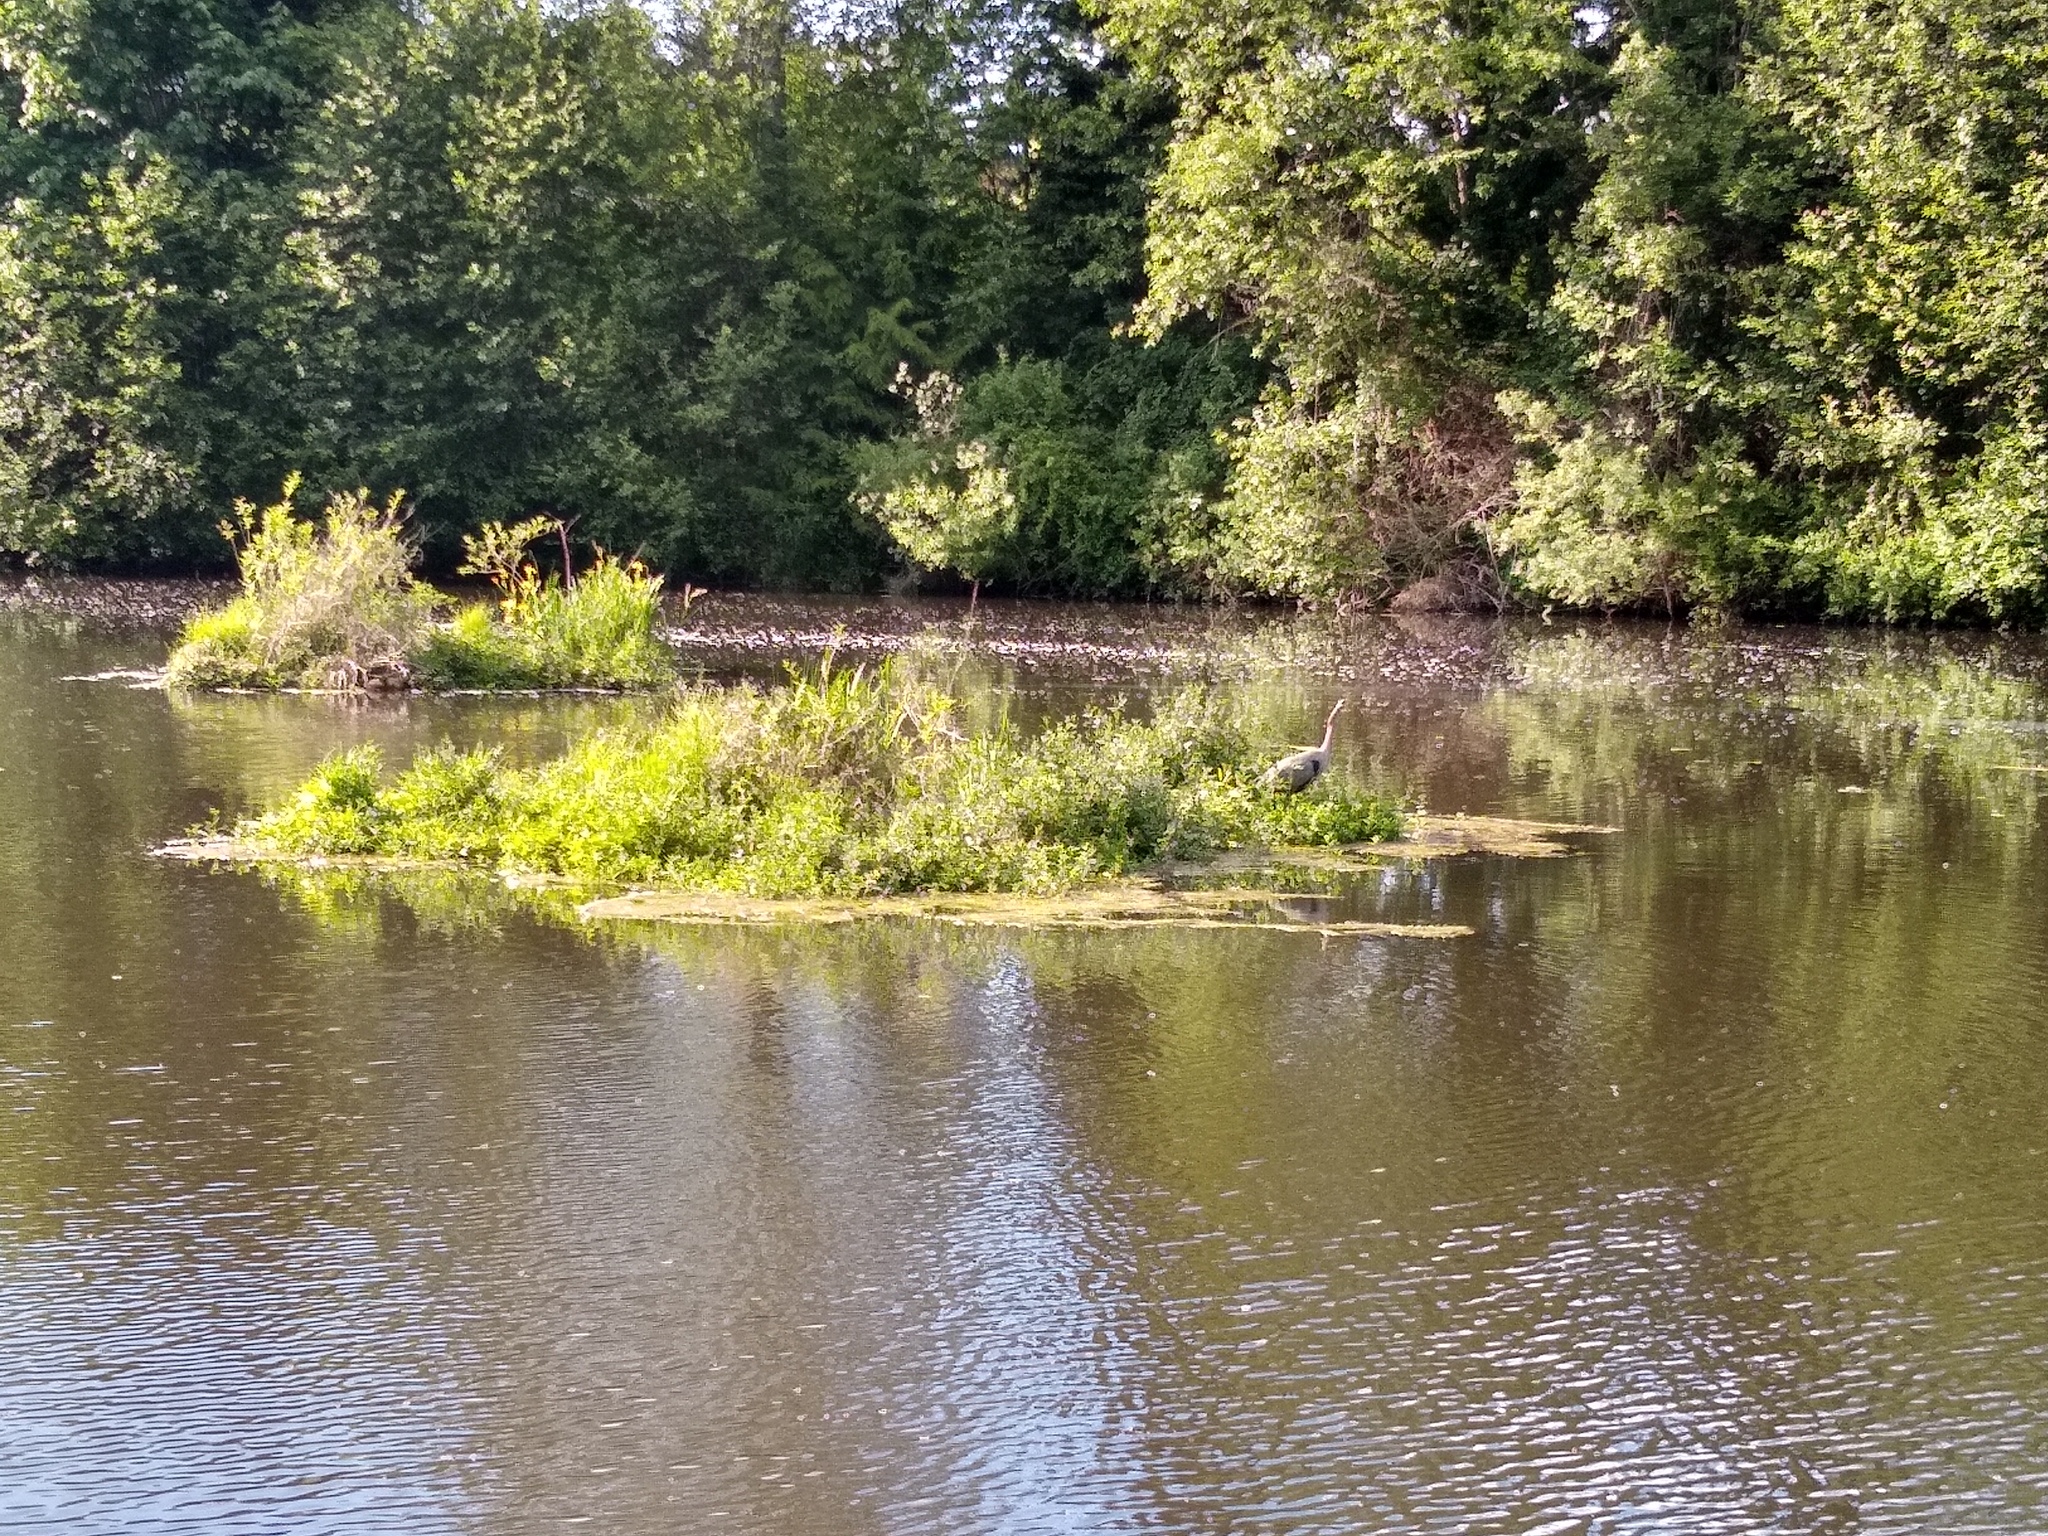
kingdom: Animalia
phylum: Chordata
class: Aves
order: Pelecaniformes
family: Ardeidae
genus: Ardea
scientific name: Ardea herodias
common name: Great blue heron
